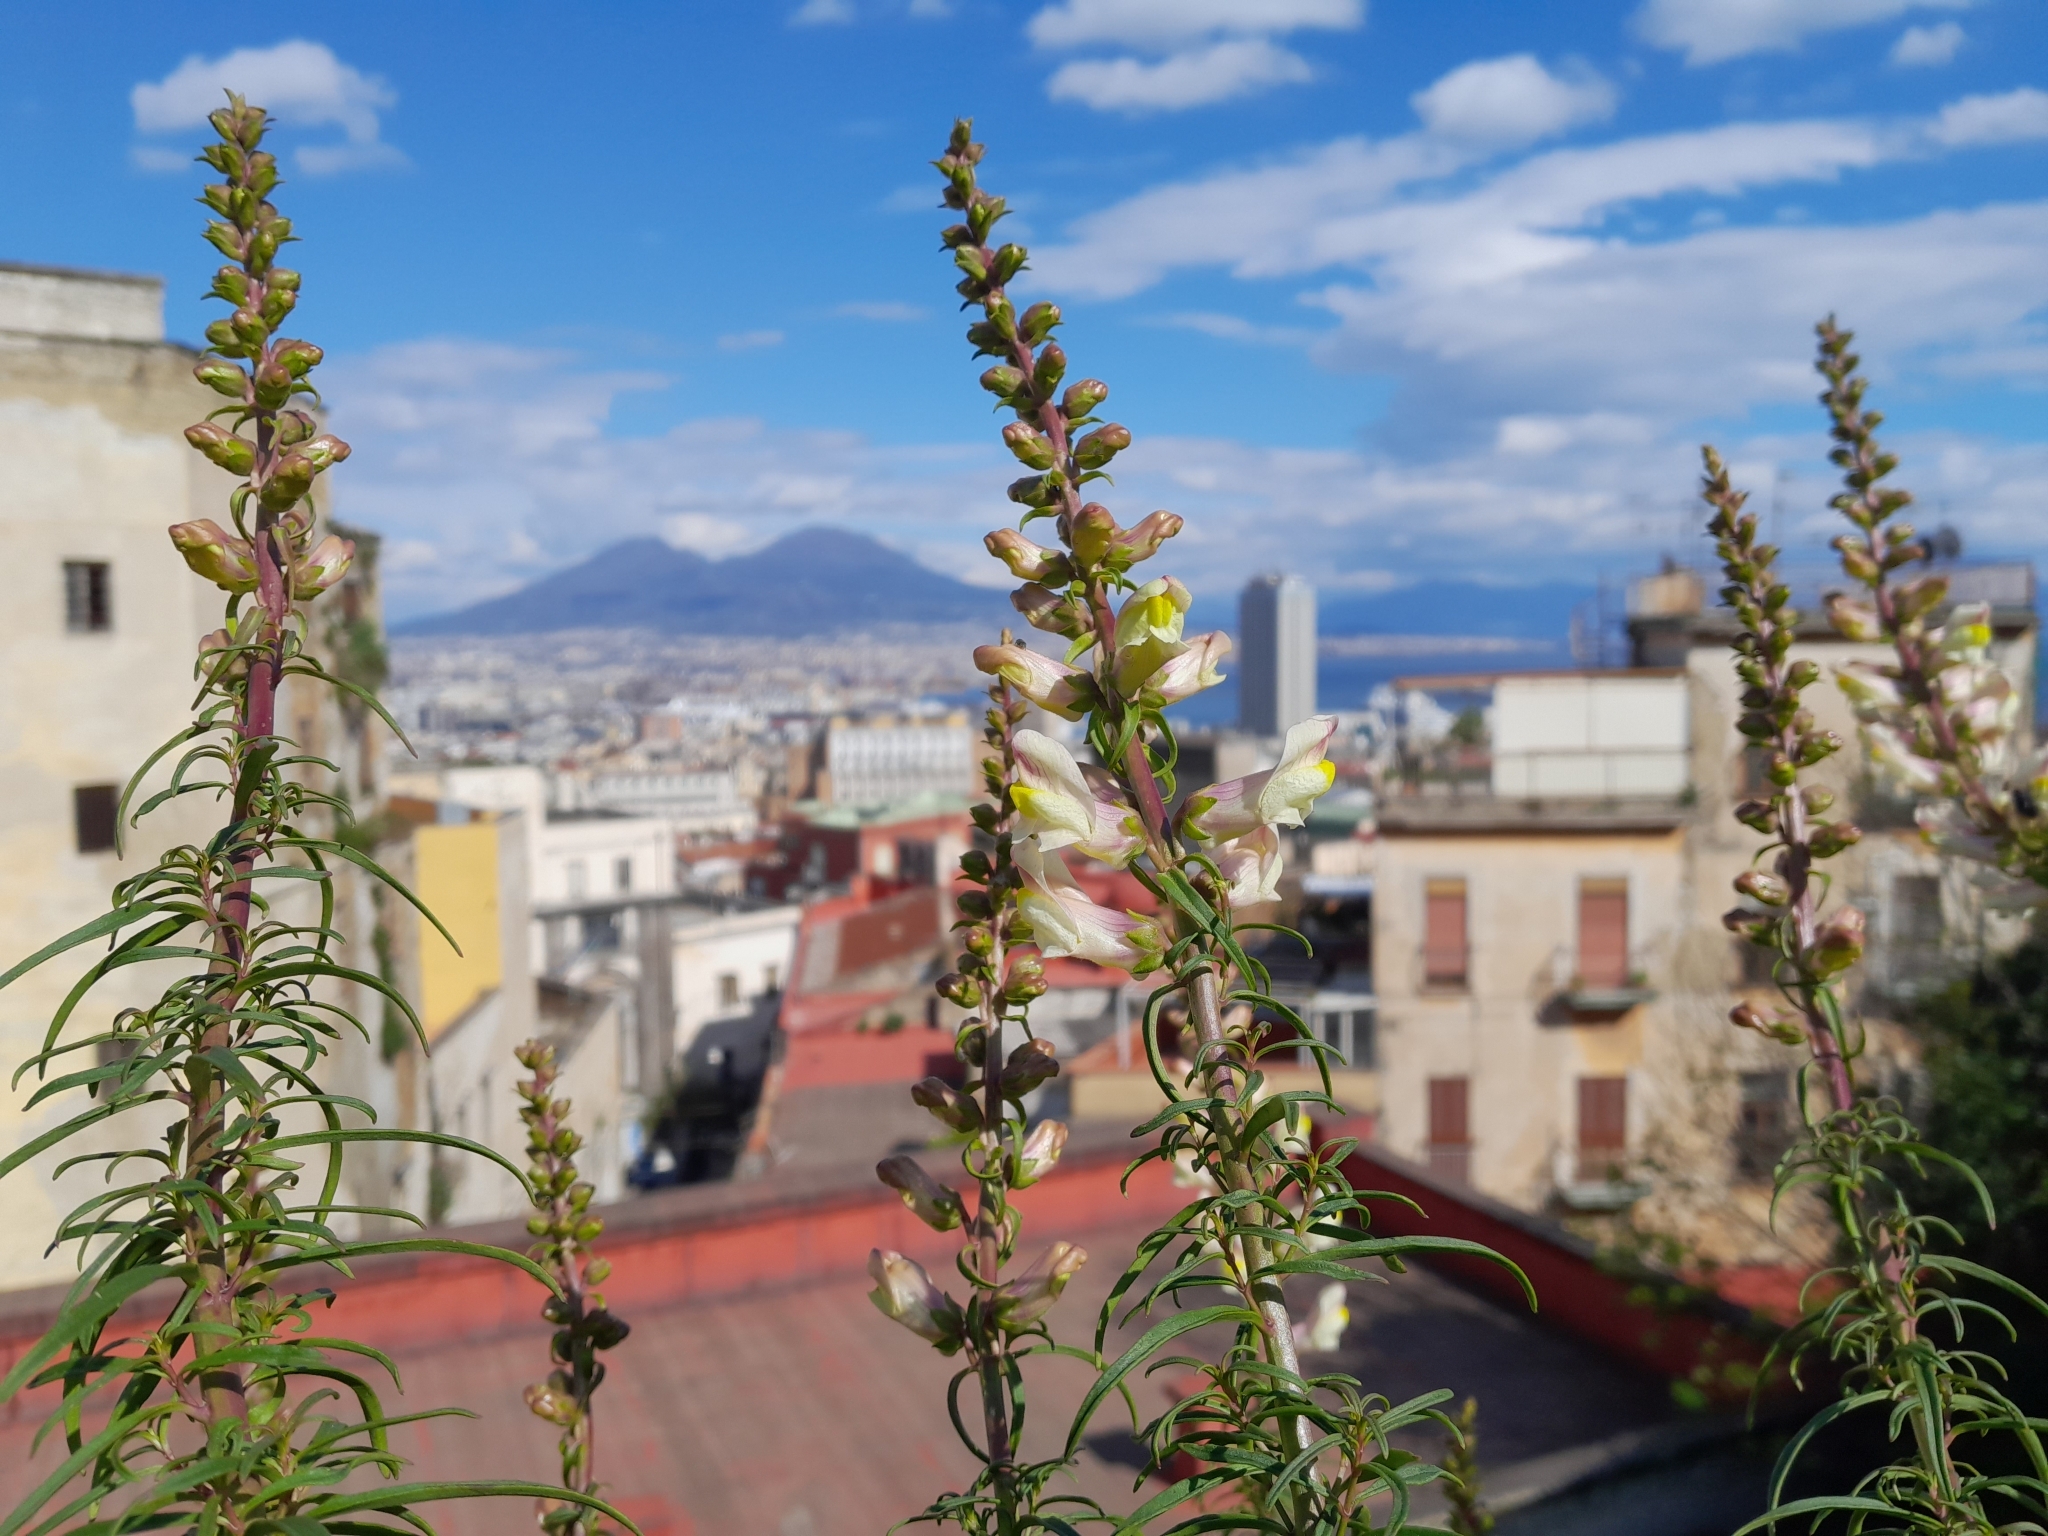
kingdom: Plantae
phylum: Tracheophyta
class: Magnoliopsida
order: Lamiales
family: Plantaginaceae
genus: Antirrhinum
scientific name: Antirrhinum siculum
